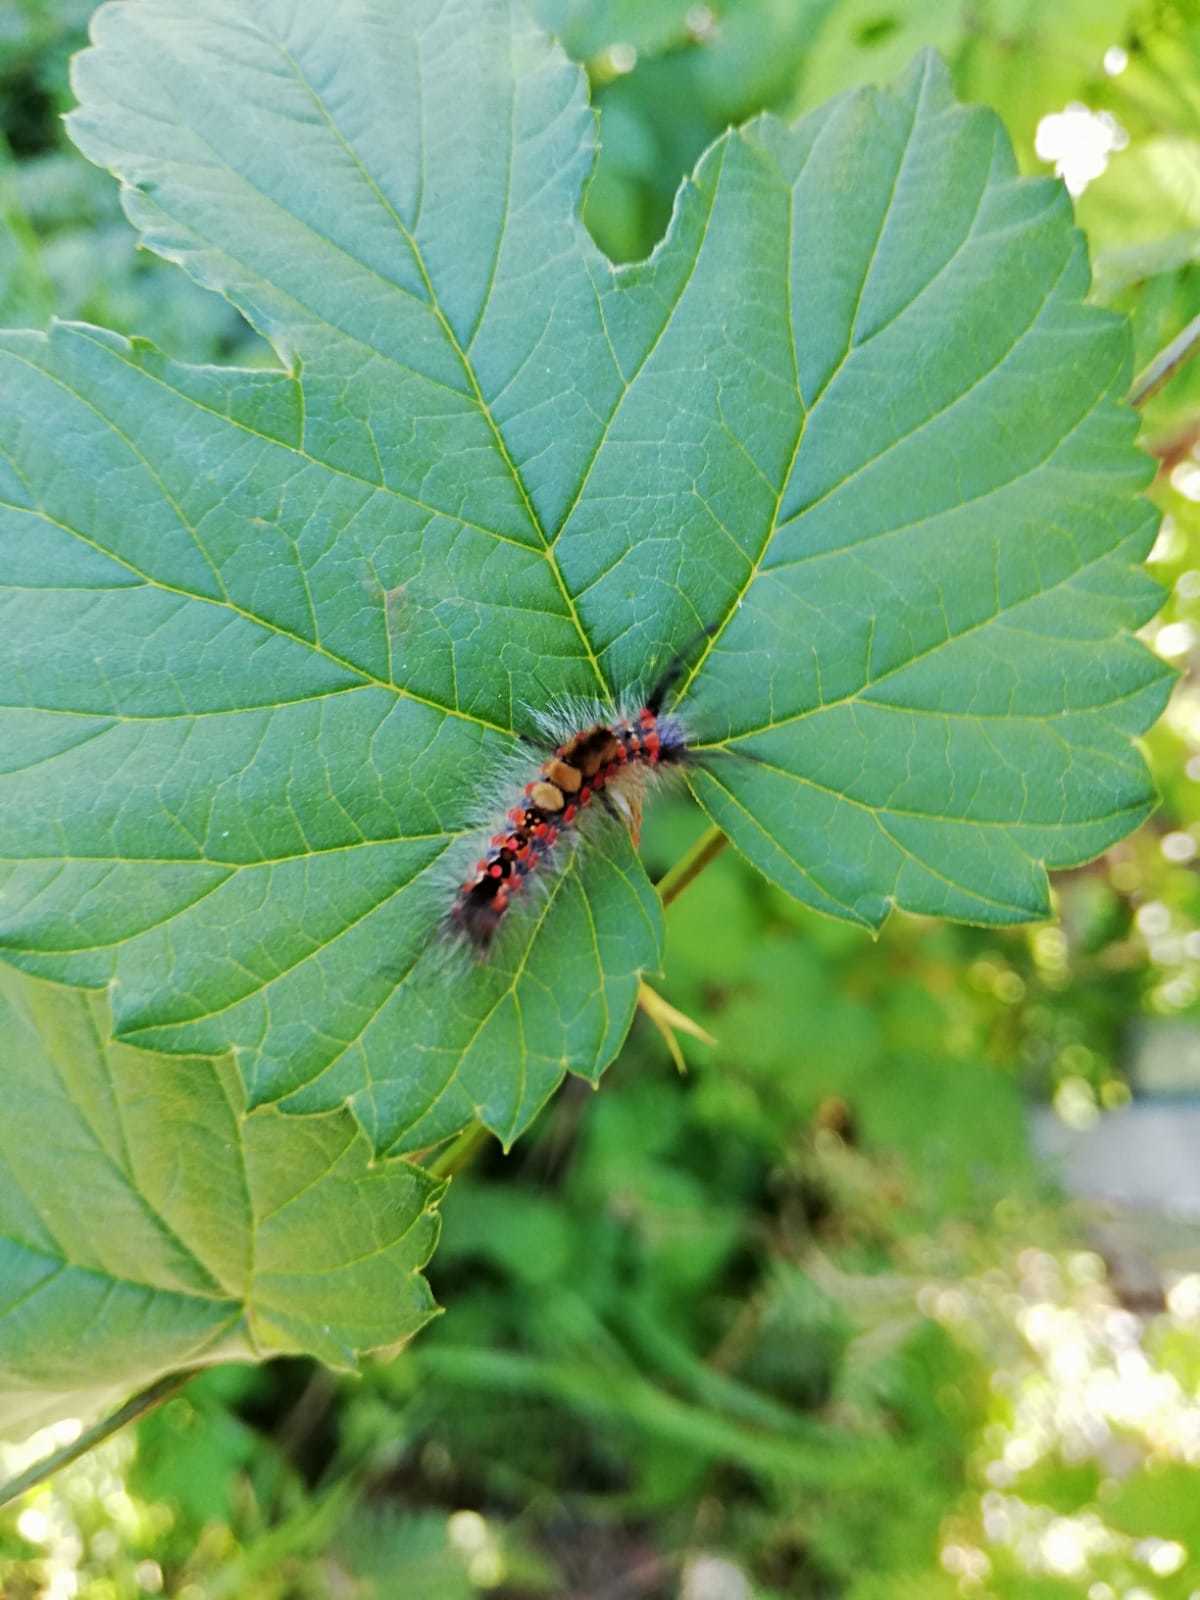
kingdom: Animalia
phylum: Arthropoda
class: Insecta
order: Lepidoptera
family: Erebidae
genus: Orgyia
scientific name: Orgyia antiqua
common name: Vapourer
